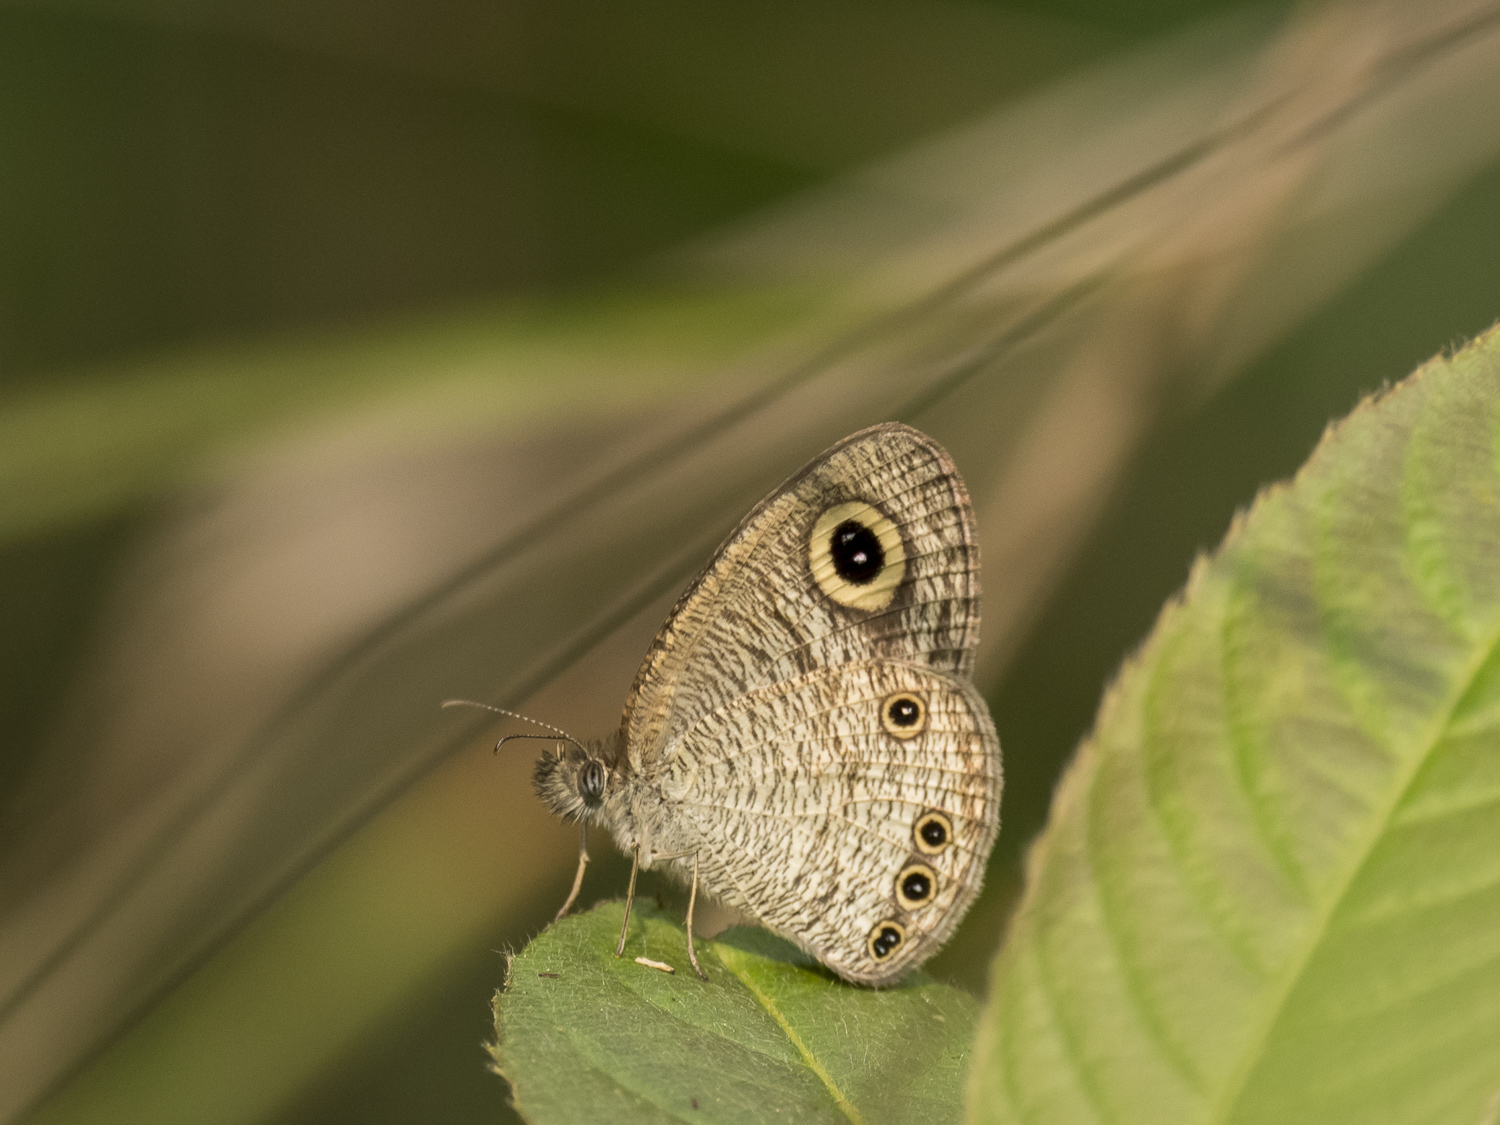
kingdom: Animalia
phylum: Arthropoda
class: Insecta
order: Lepidoptera
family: Nymphalidae
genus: Ypthima
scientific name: Ypthima huebneri
